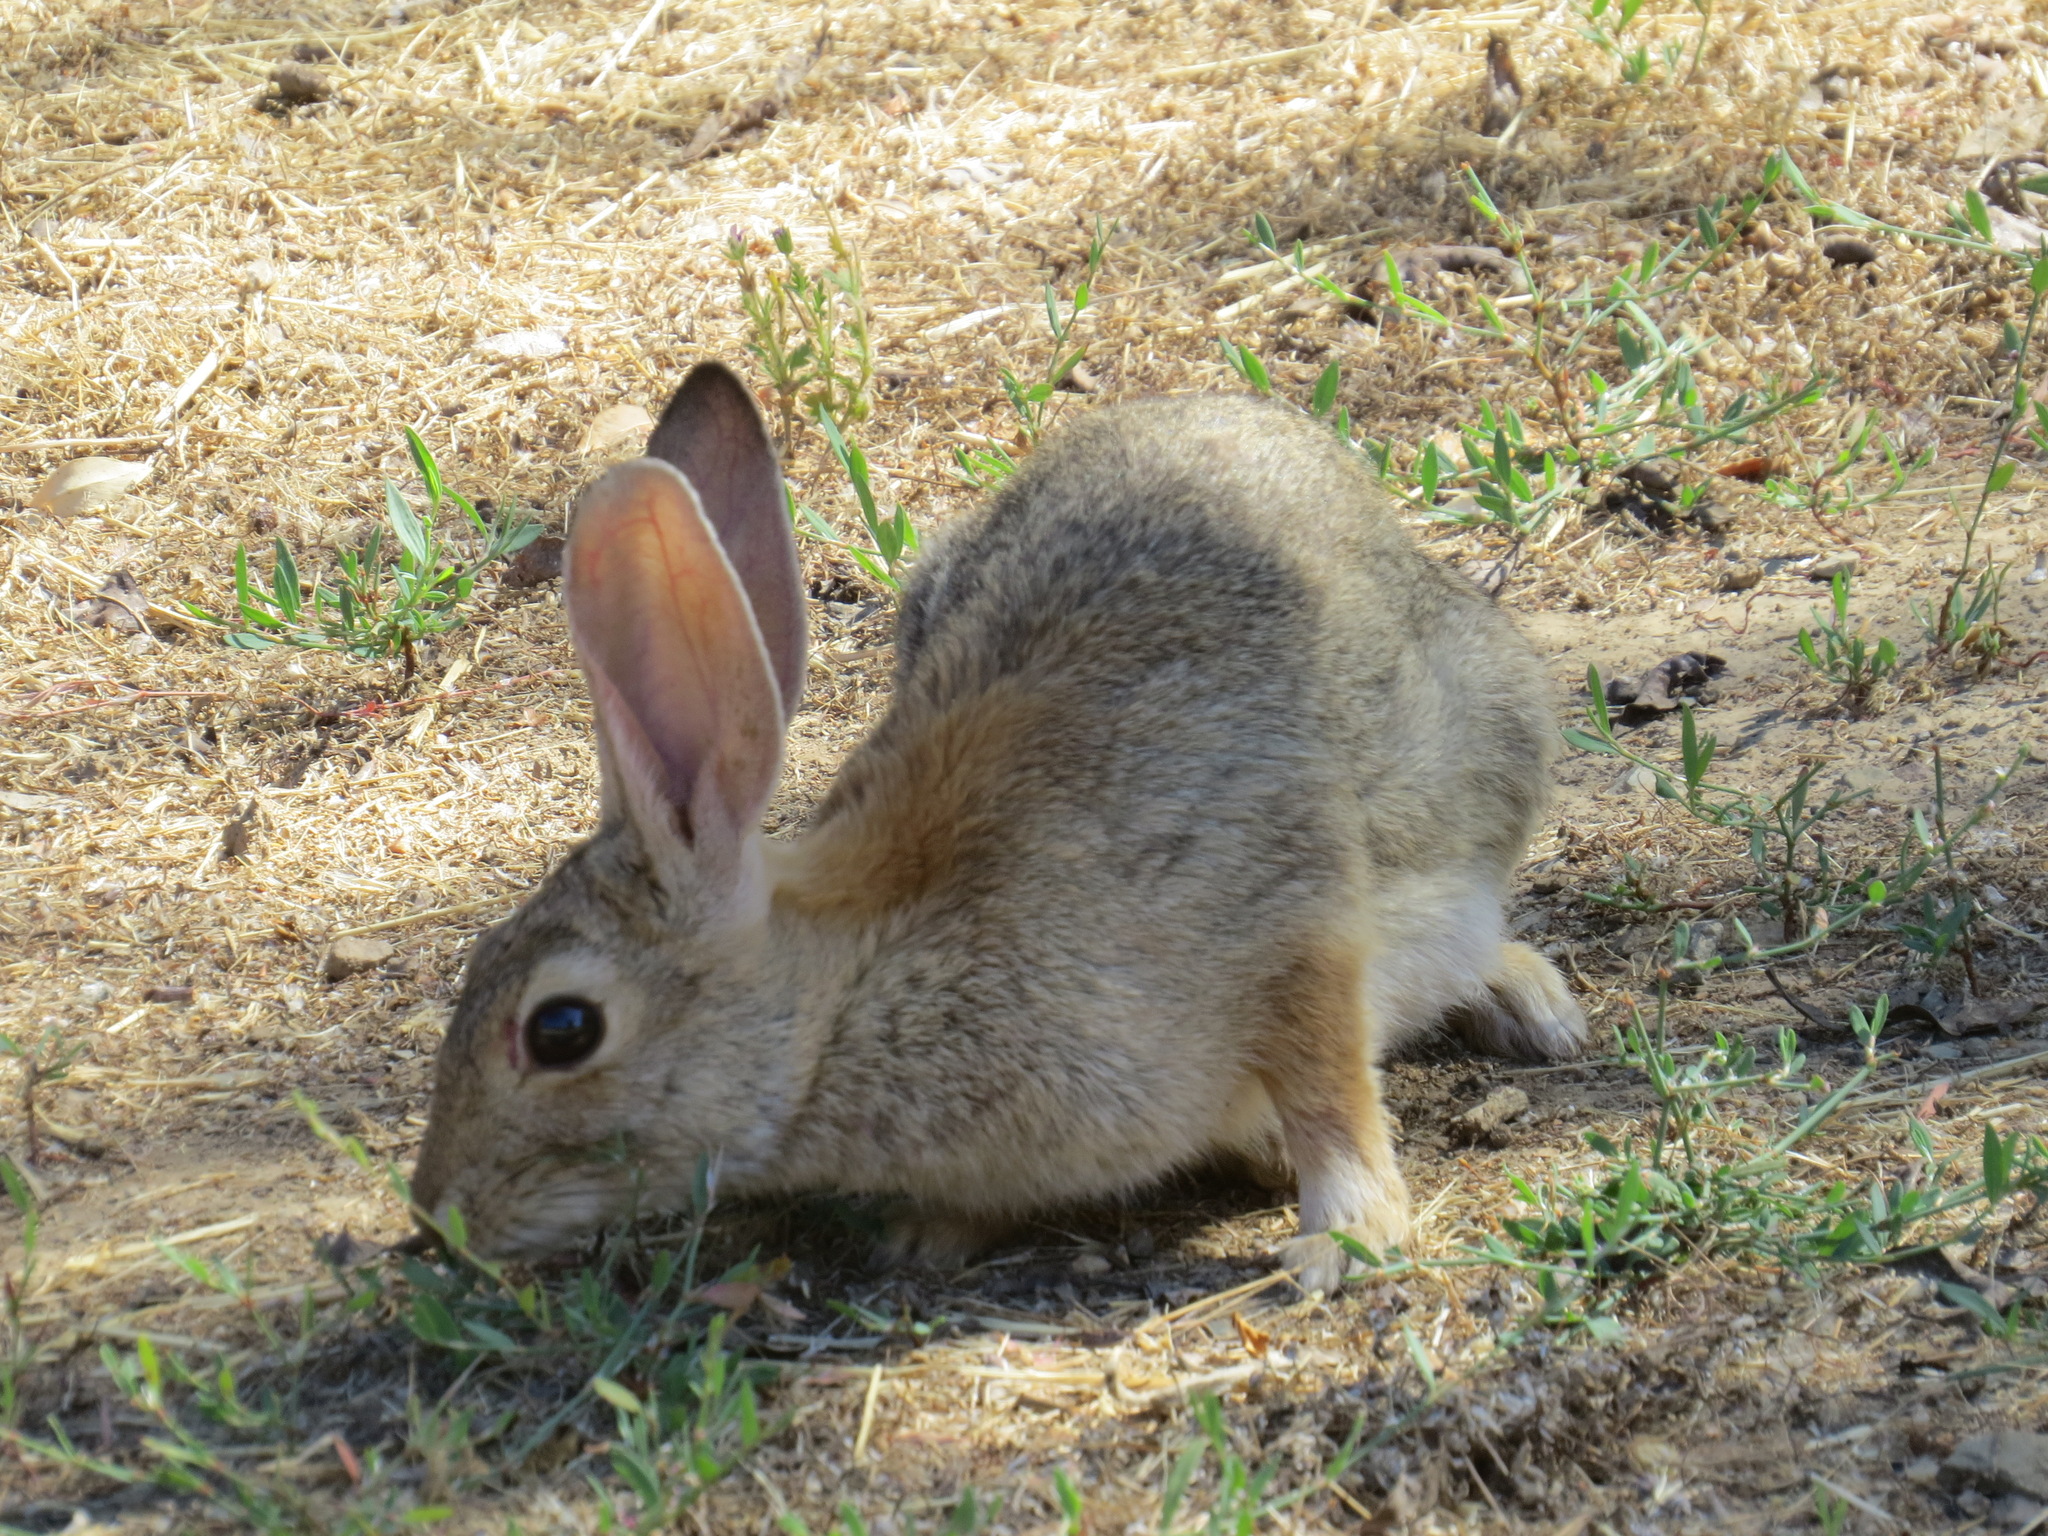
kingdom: Animalia
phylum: Chordata
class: Mammalia
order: Lagomorpha
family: Leporidae
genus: Sylvilagus
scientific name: Sylvilagus audubonii
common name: Desert cottontail
